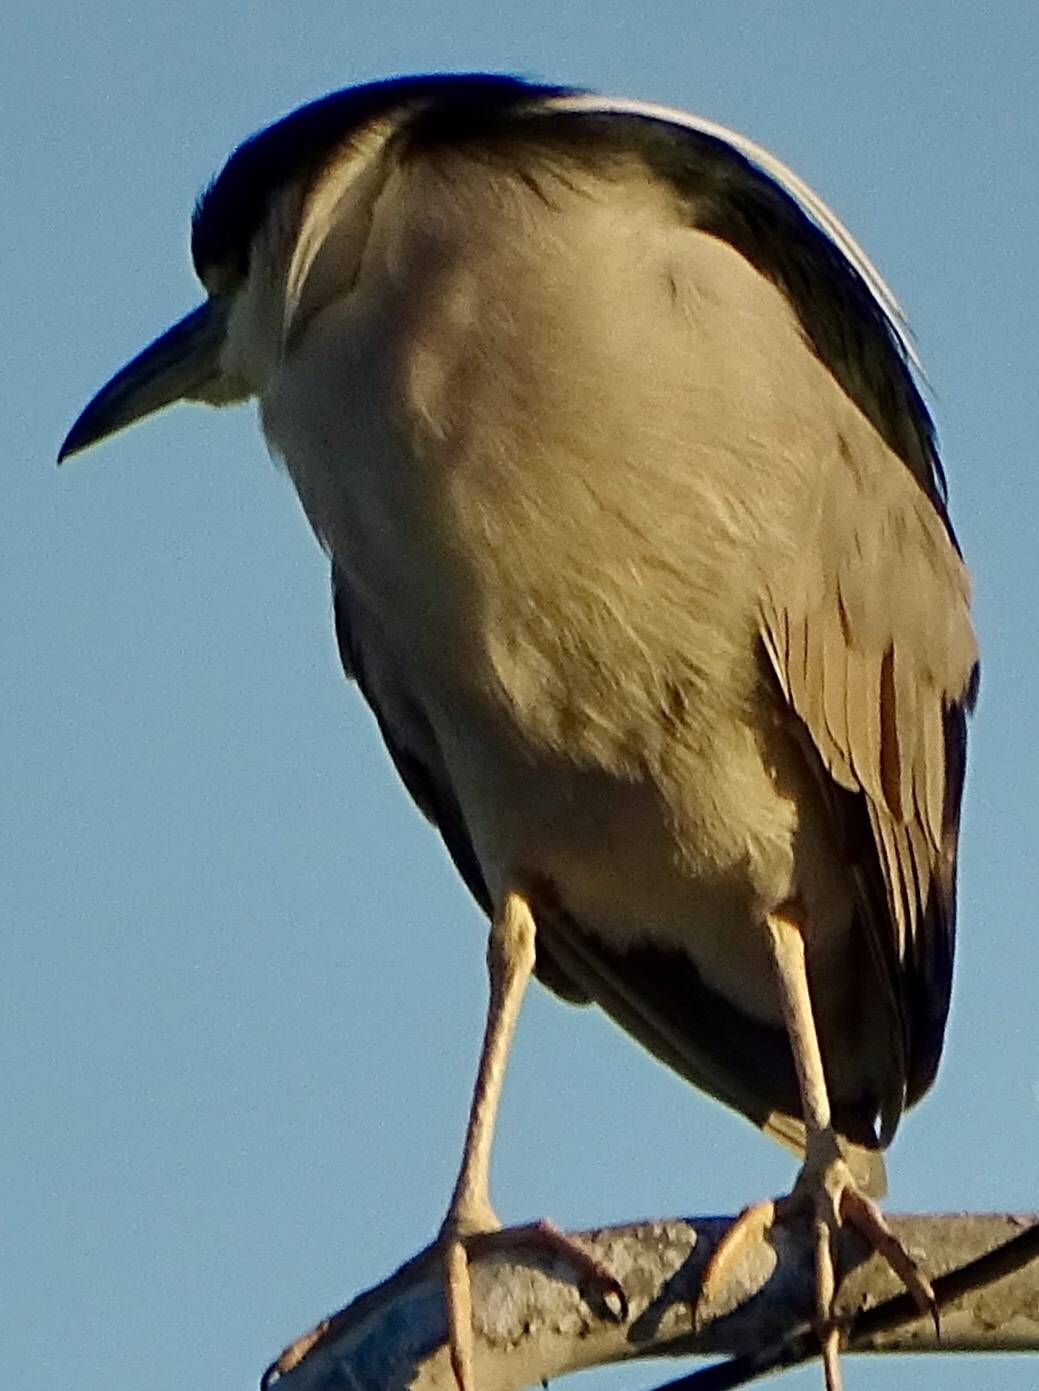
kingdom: Animalia
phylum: Chordata
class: Aves
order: Pelecaniformes
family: Ardeidae
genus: Nycticorax
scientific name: Nycticorax nycticorax
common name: Black-crowned night heron
